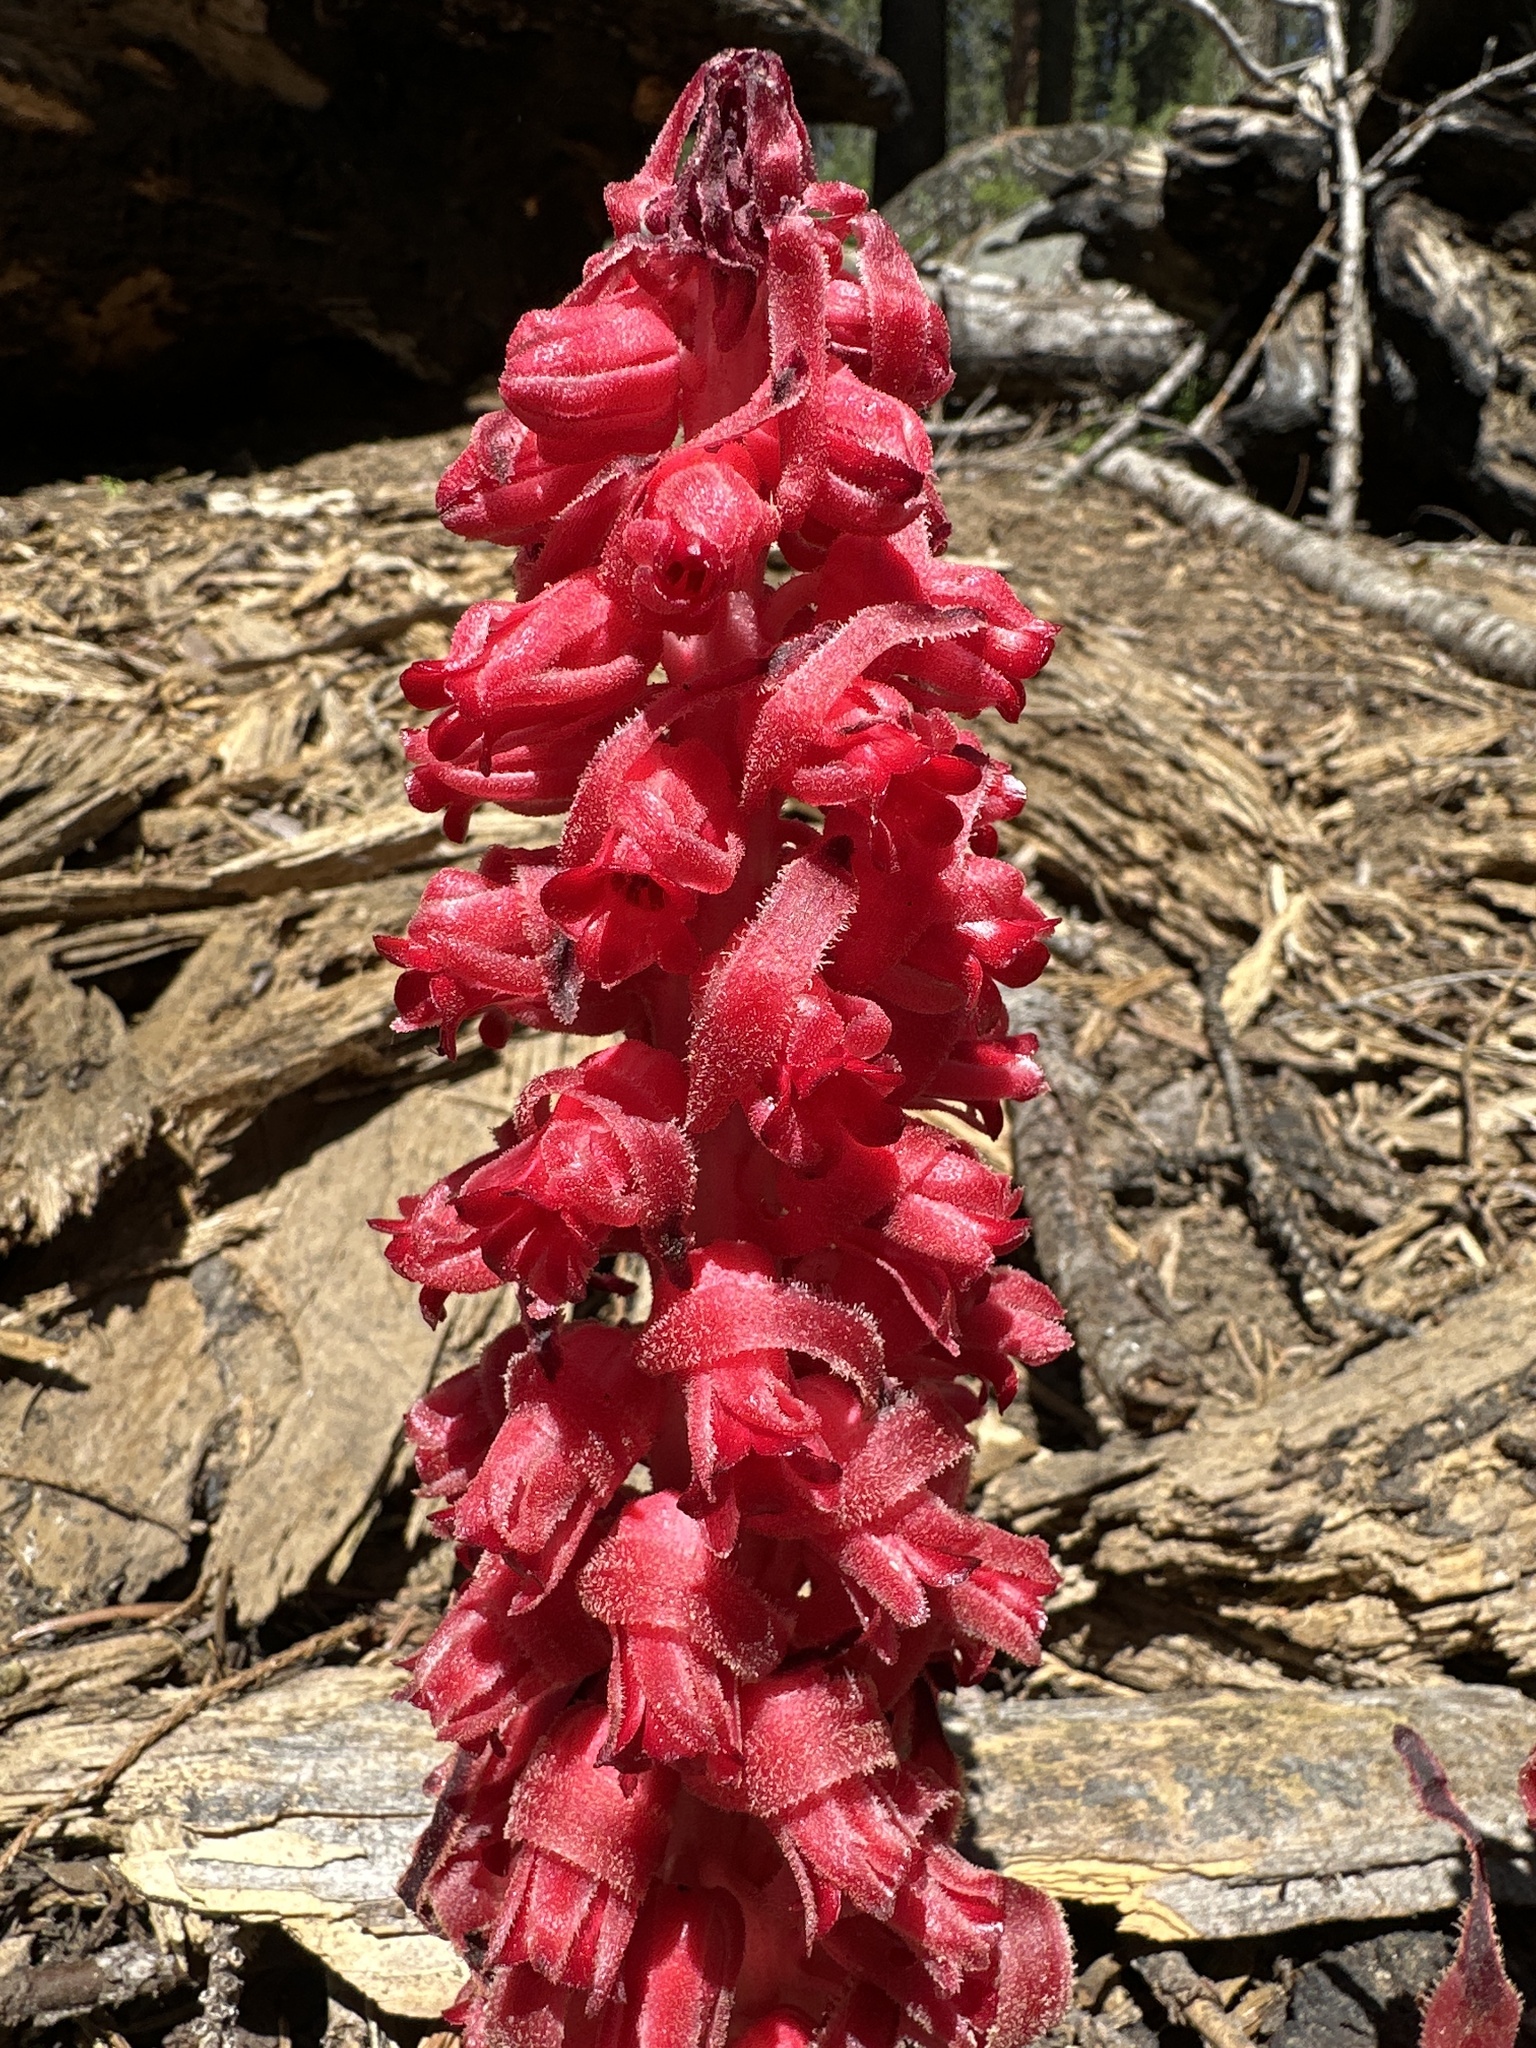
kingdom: Plantae
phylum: Tracheophyta
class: Magnoliopsida
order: Ericales
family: Ericaceae
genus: Sarcodes
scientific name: Sarcodes sanguinea
